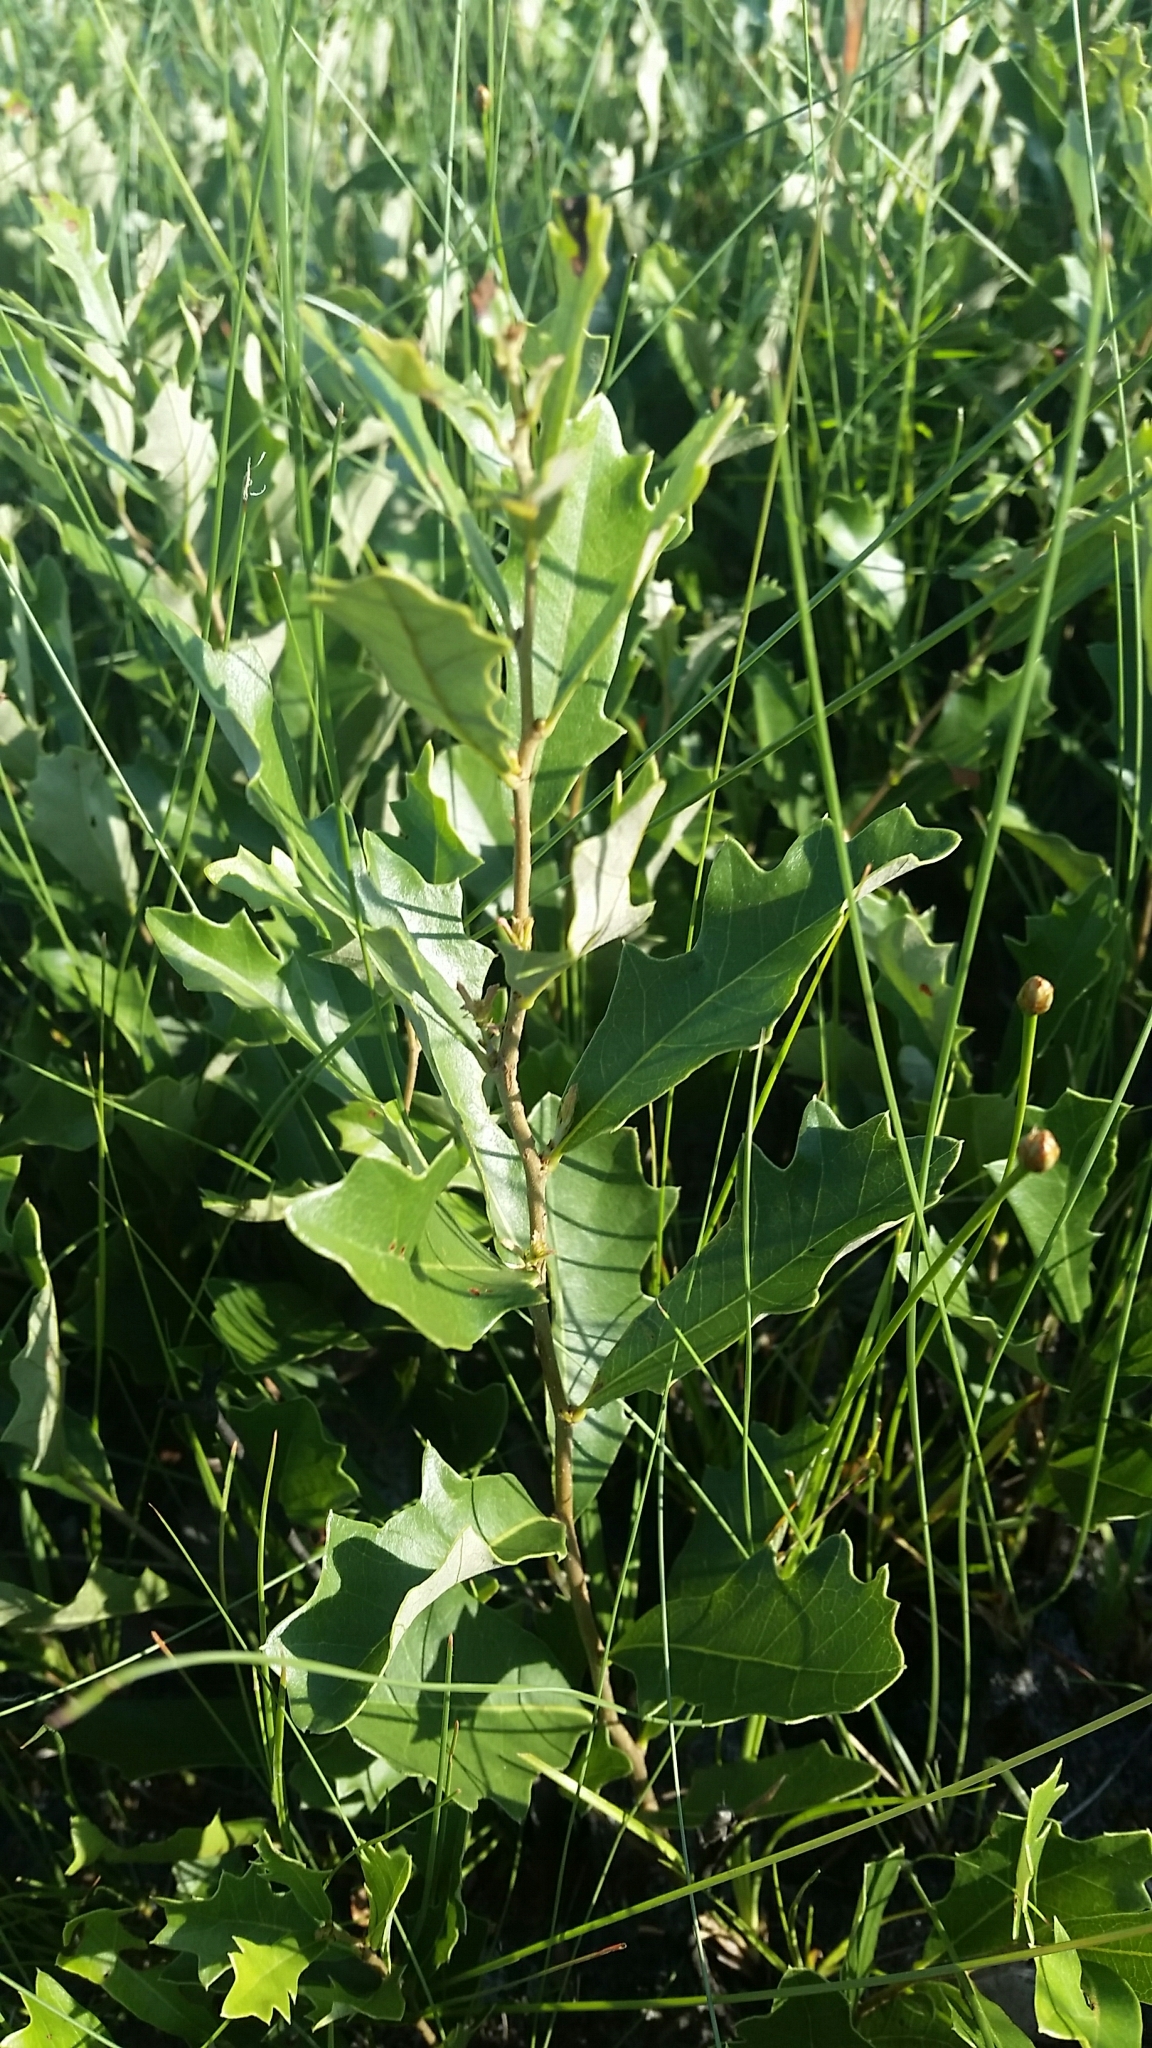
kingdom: Plantae
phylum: Tracheophyta
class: Magnoliopsida
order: Fagales
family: Fagaceae
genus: Quercus
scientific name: Quercus minima
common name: Dwarf live oak
